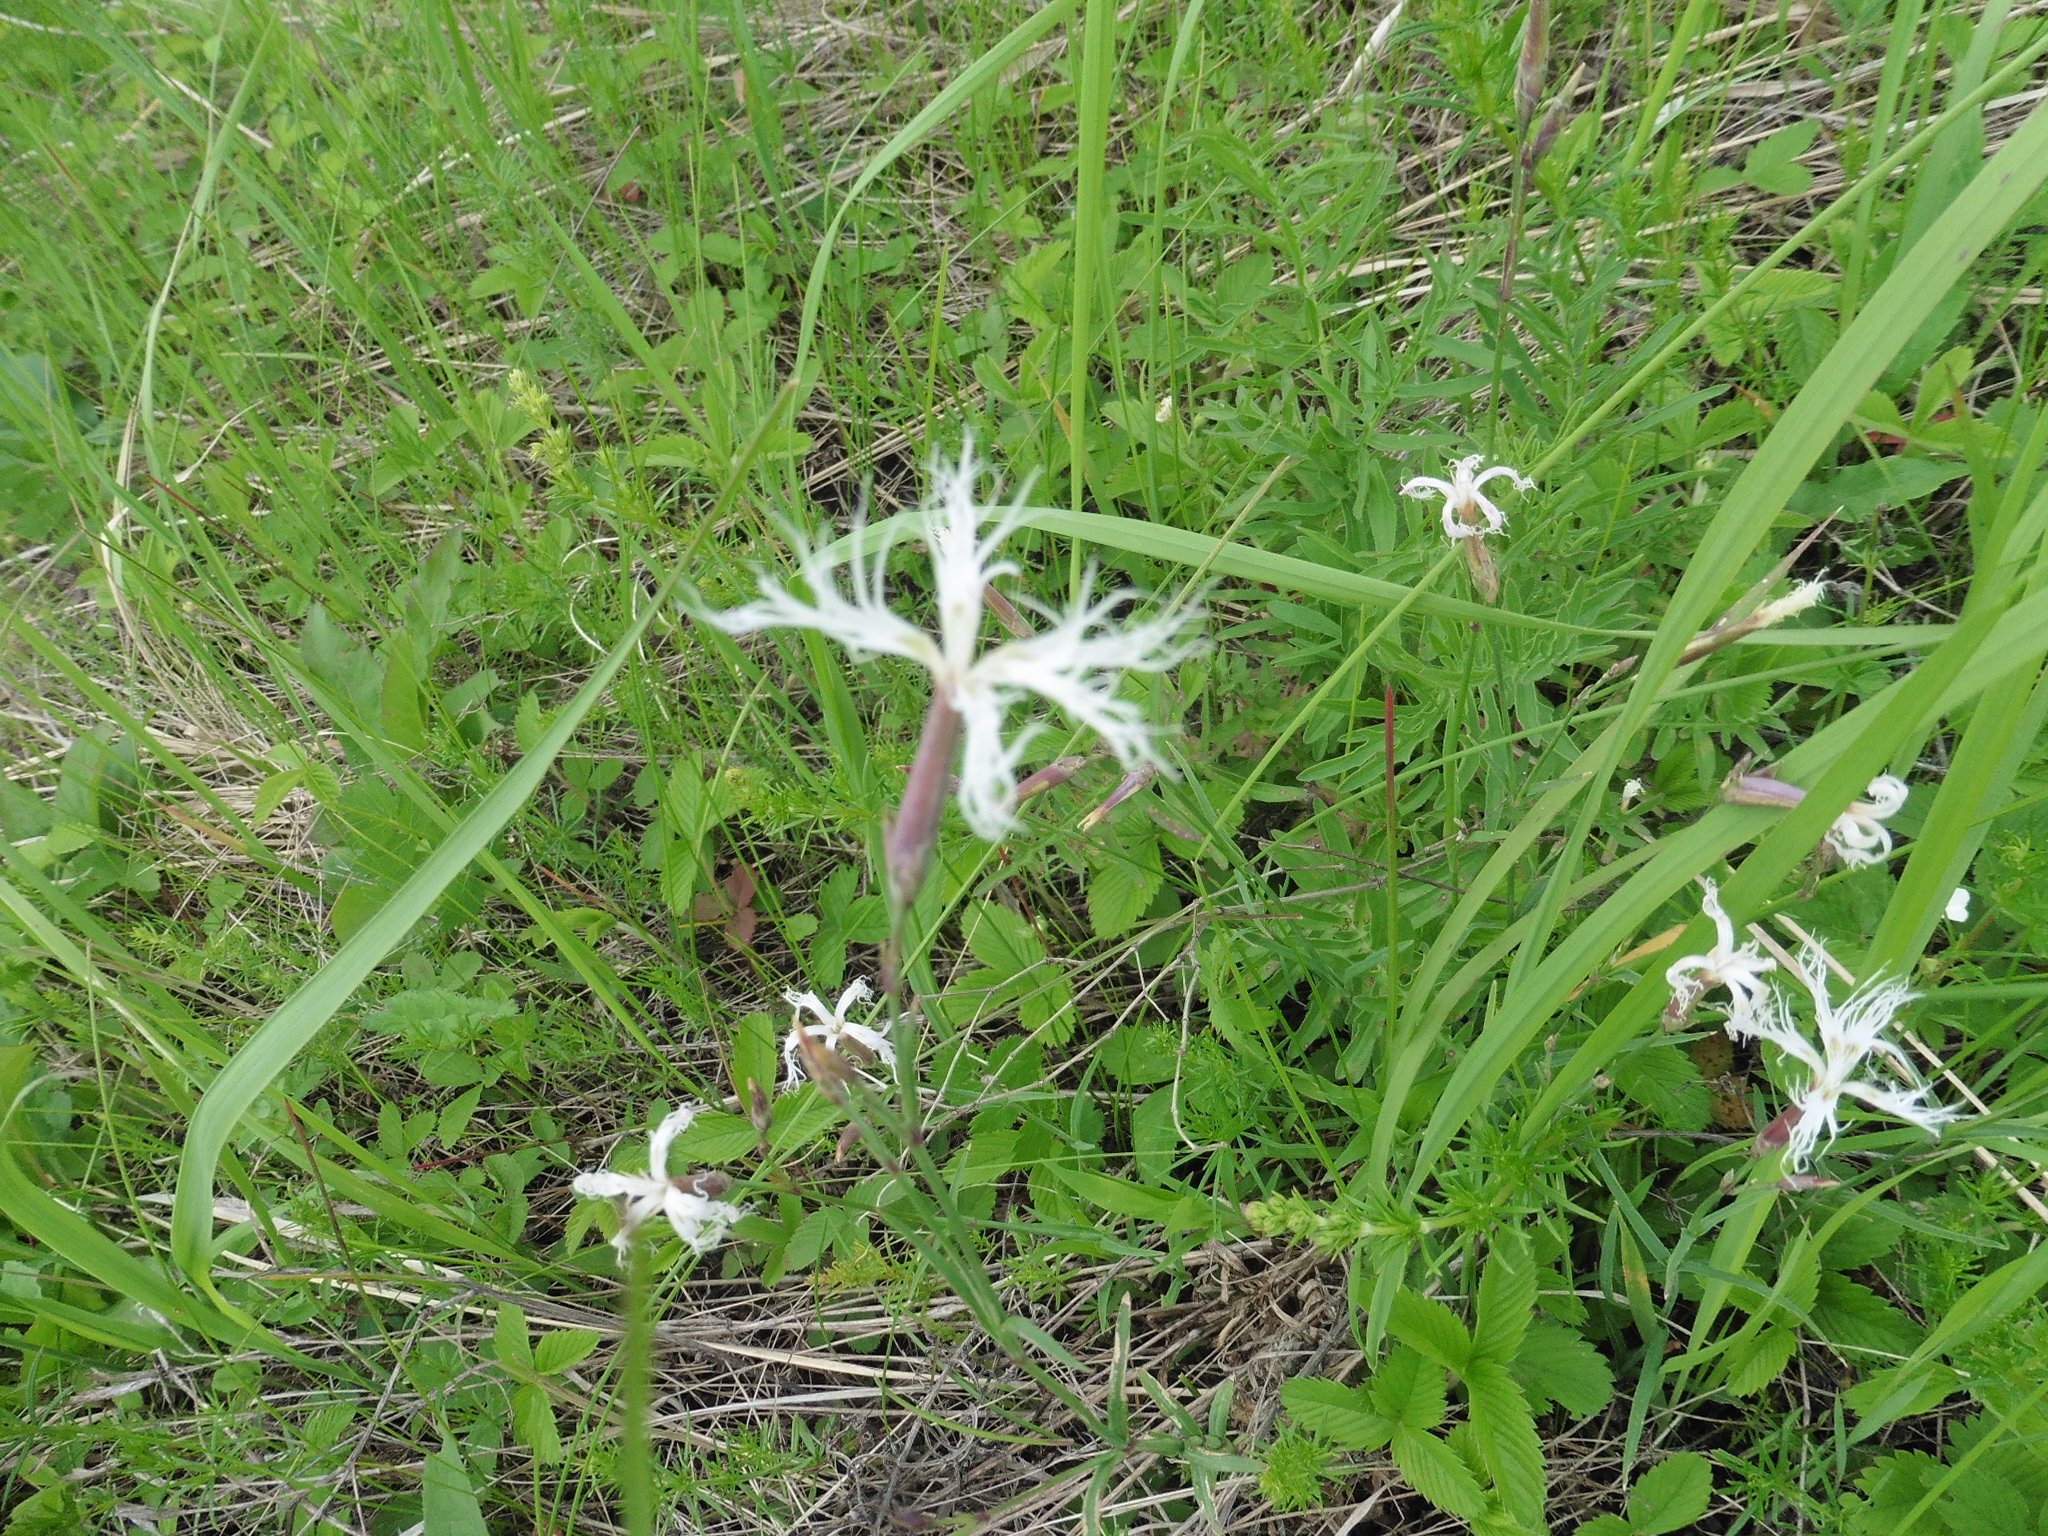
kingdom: Plantae
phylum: Tracheophyta
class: Magnoliopsida
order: Caryophyllales
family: Caryophyllaceae
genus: Dianthus
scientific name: Dianthus superbus
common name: Fringed pink
